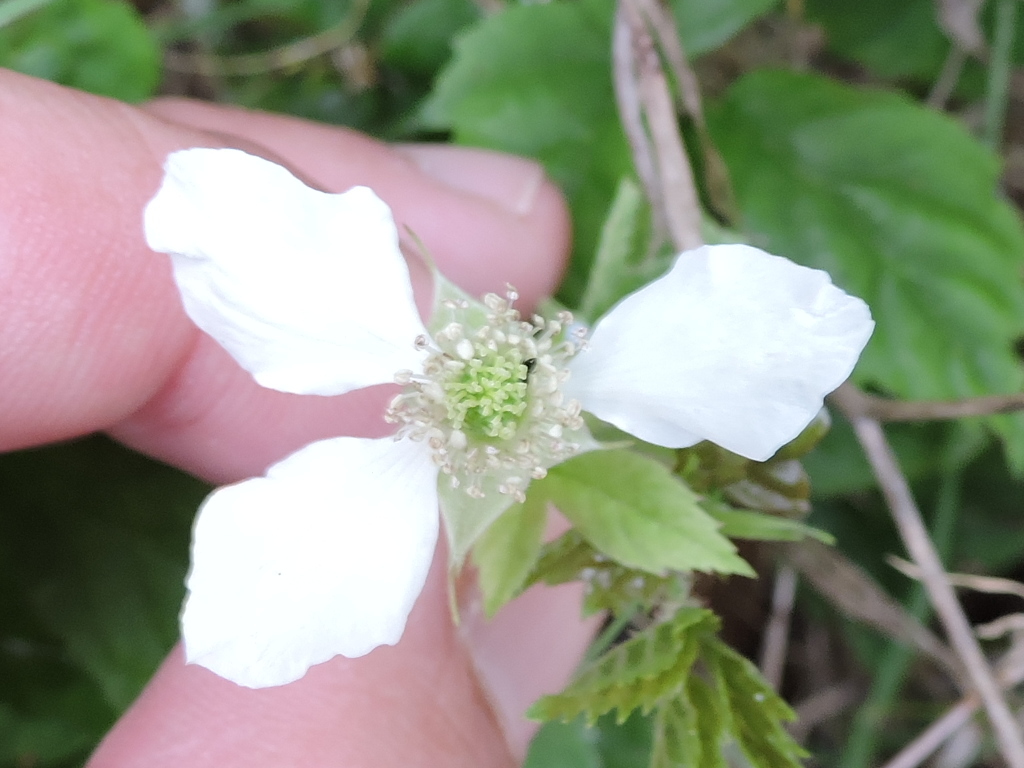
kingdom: Plantae
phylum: Tracheophyta
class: Magnoliopsida
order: Rosales
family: Rosaceae
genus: Rubus
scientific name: Rubus trivialis
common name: Southern dewberry
